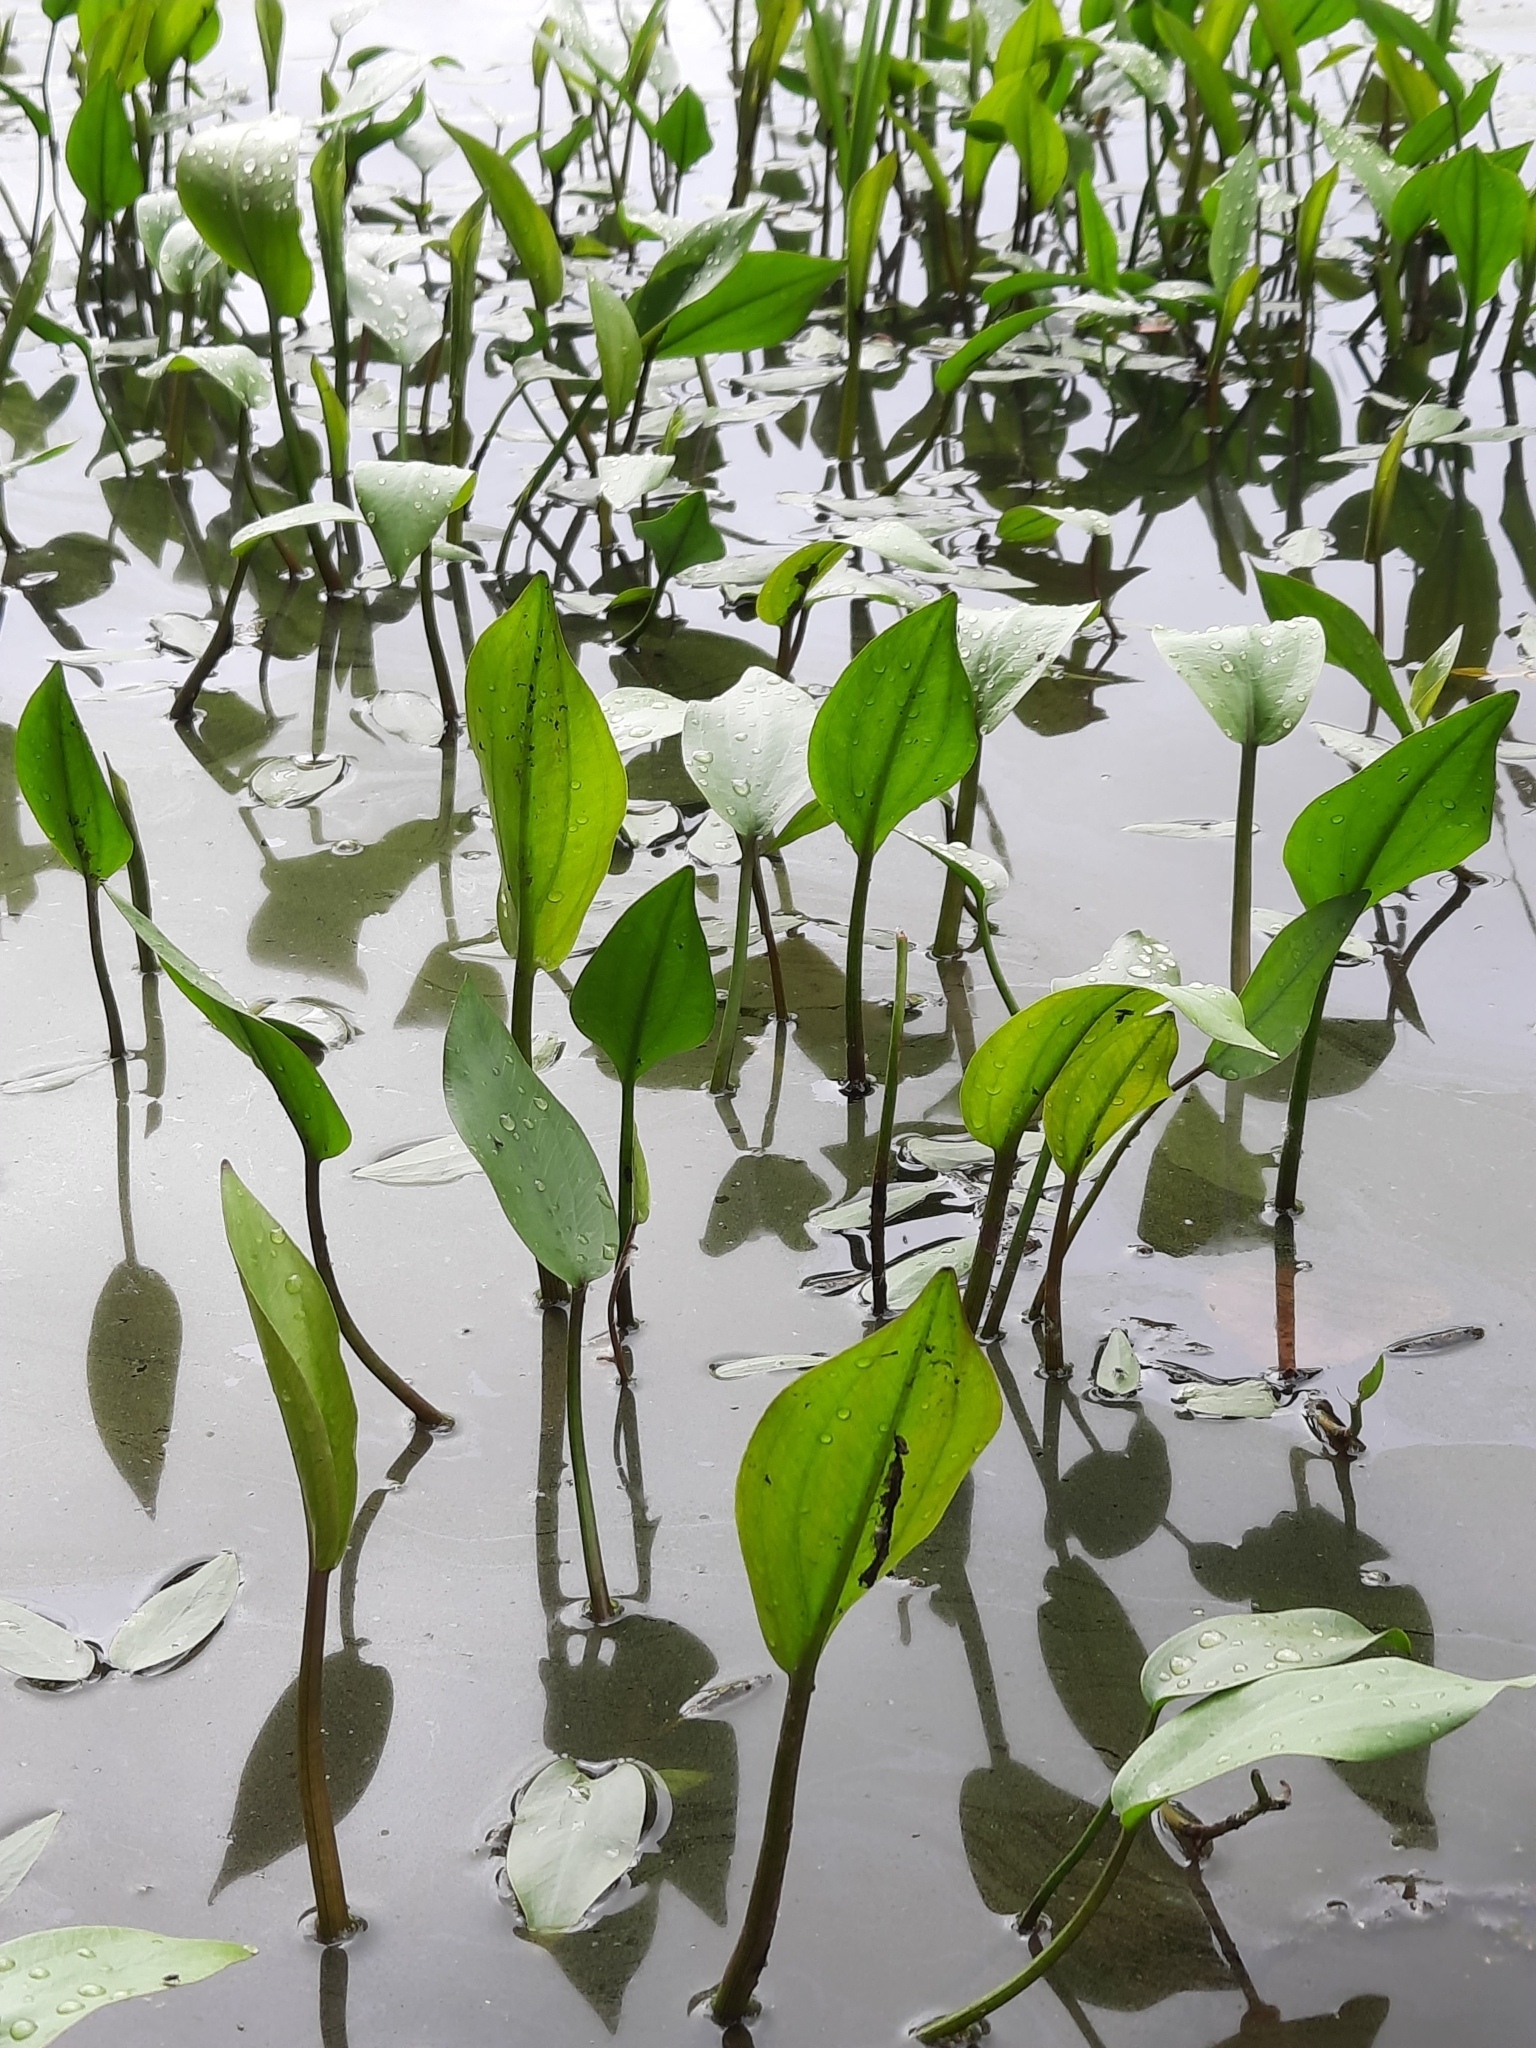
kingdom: Plantae
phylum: Tracheophyta
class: Liliopsida
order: Alismatales
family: Alismataceae
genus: Alisma
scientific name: Alisma triviale
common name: Northern water-plantain
